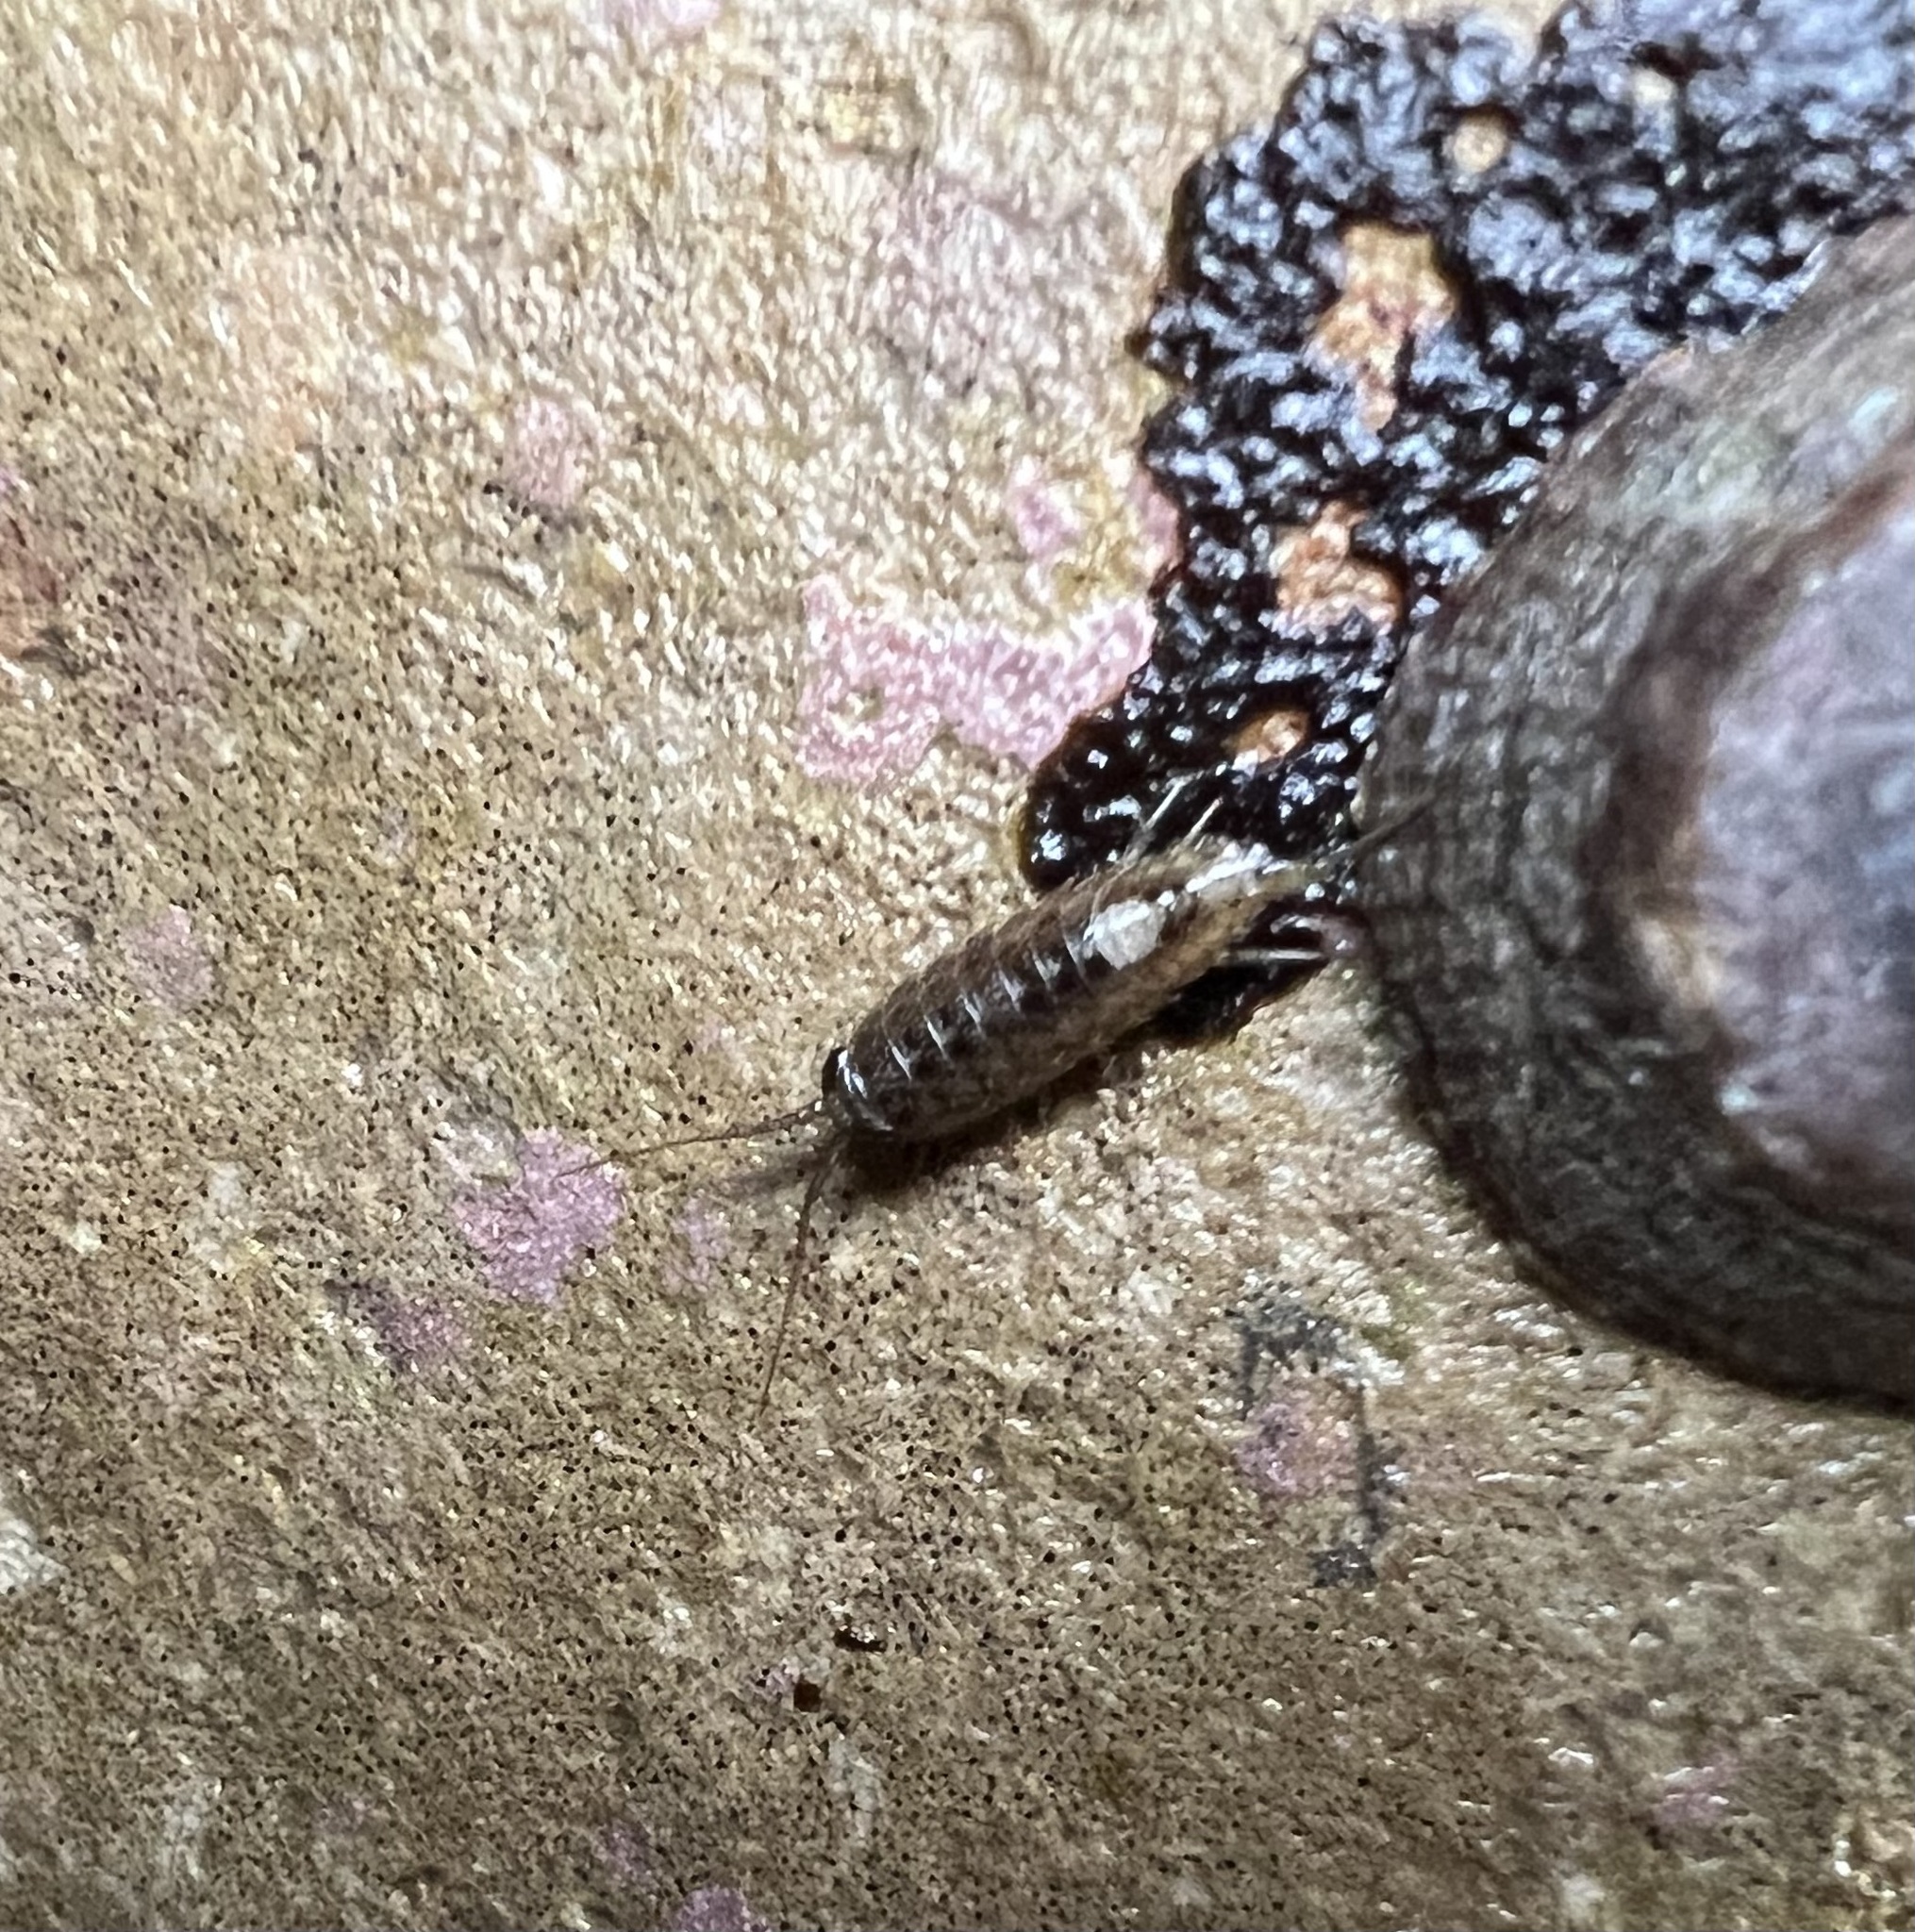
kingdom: Animalia
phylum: Arthropoda
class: Malacostraca
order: Isopoda
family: Ligiidae
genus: Ligia
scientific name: Ligia occidentalis
